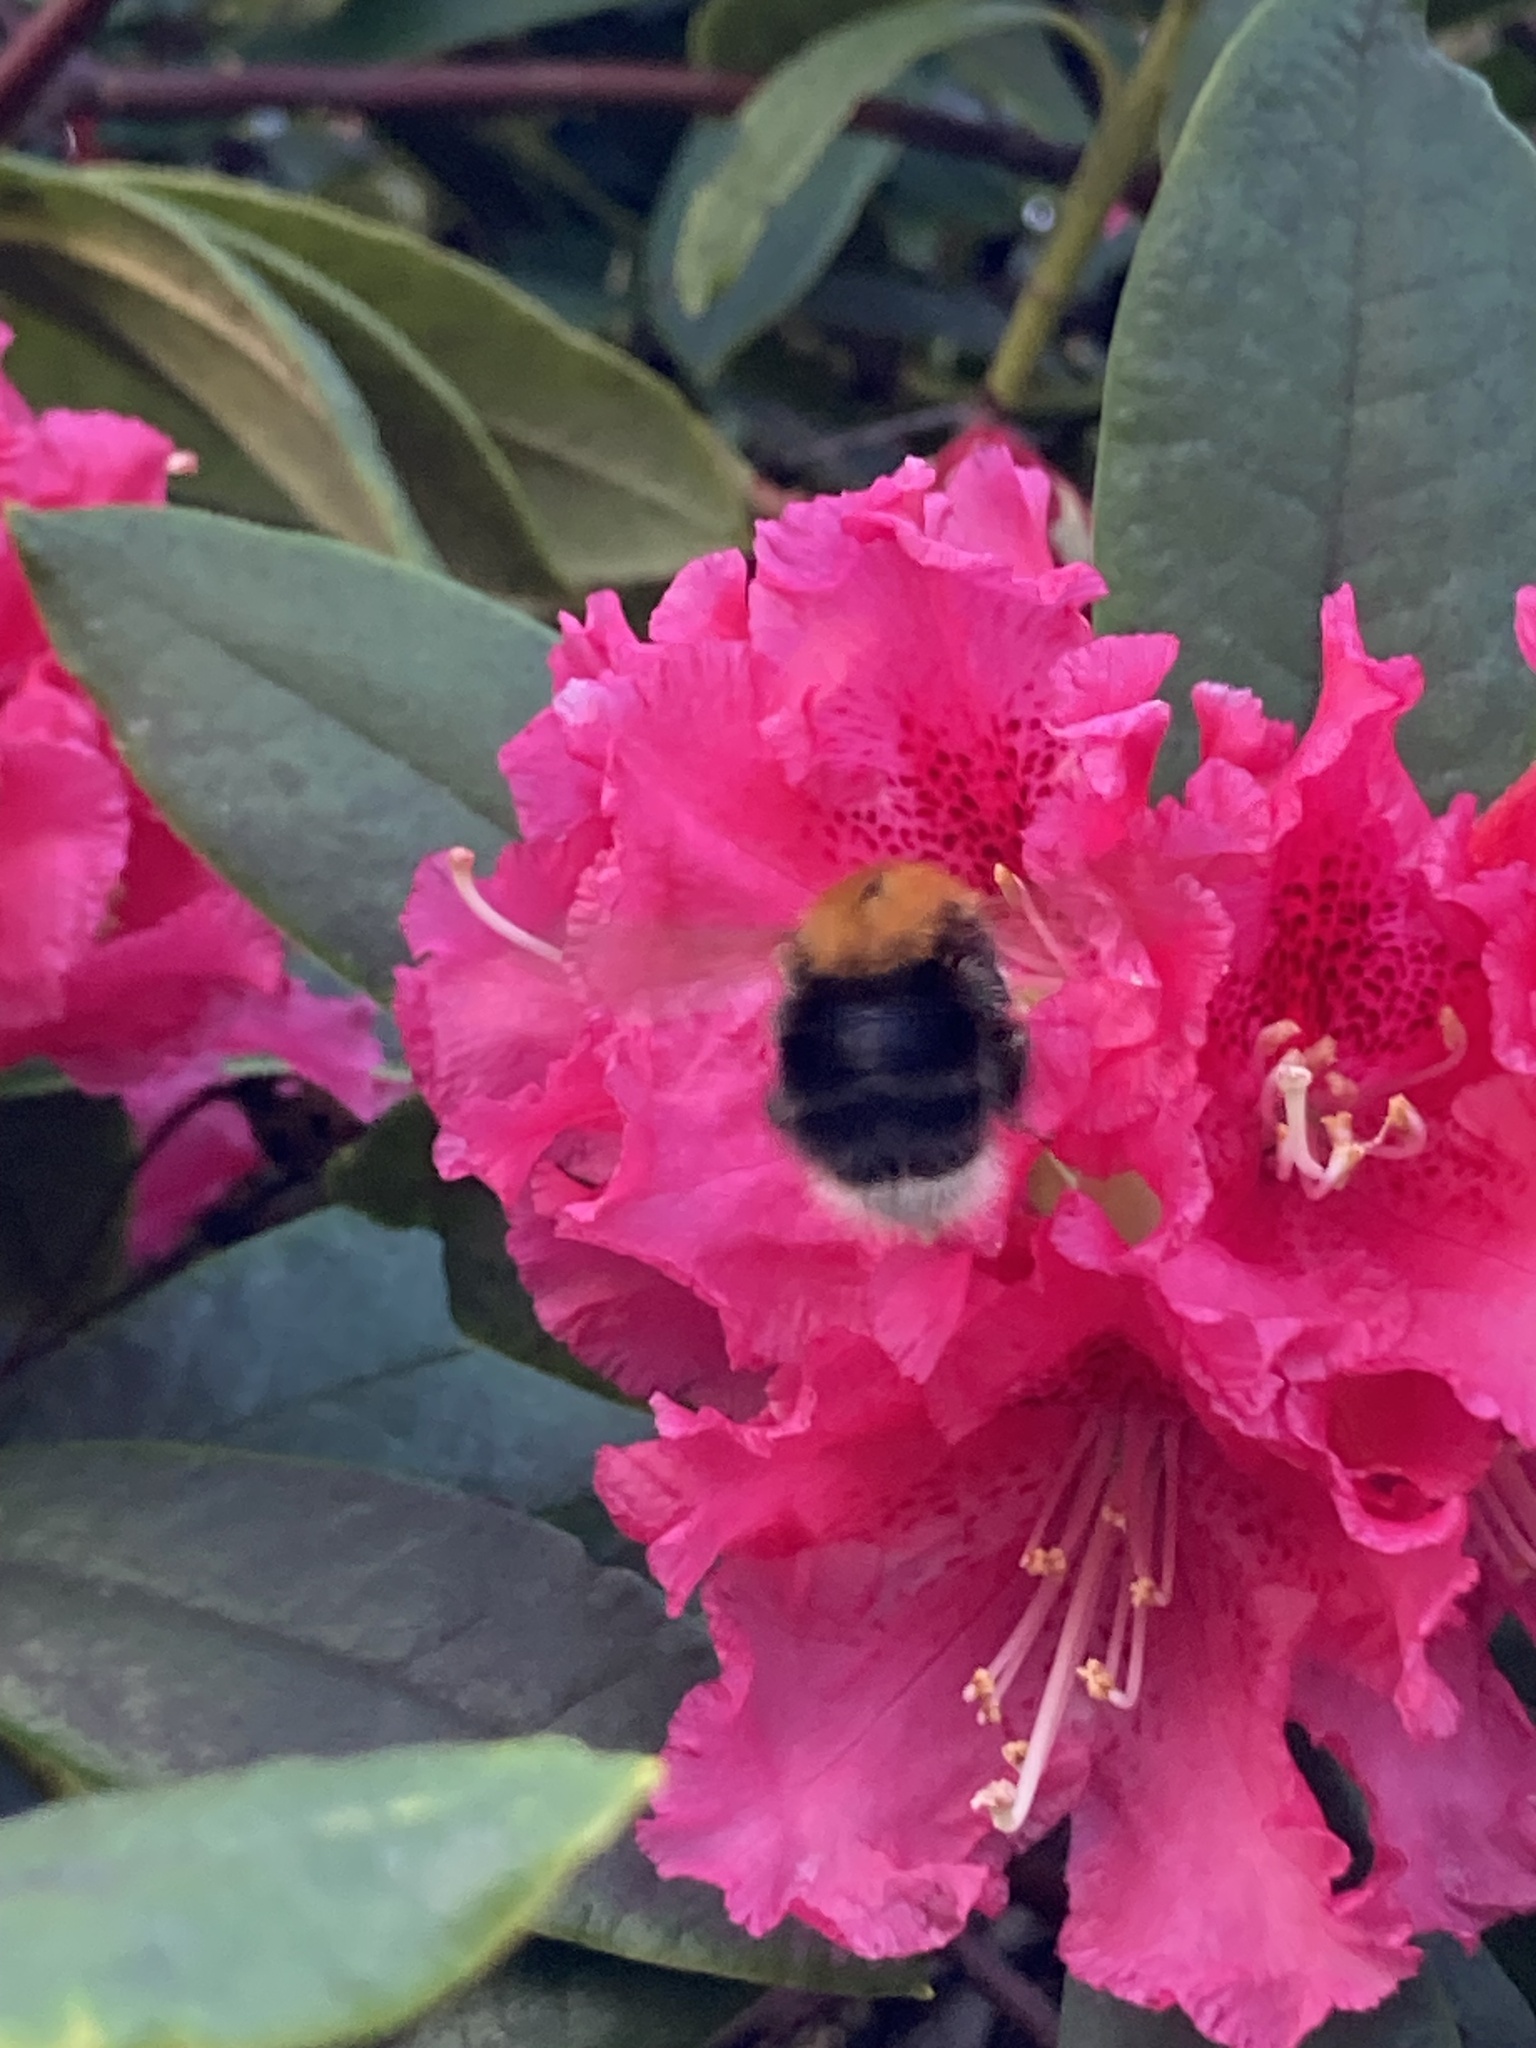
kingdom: Animalia
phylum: Arthropoda
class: Insecta
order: Hymenoptera
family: Apidae
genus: Bombus
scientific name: Bombus hypnorum
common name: New garden bumblebee
